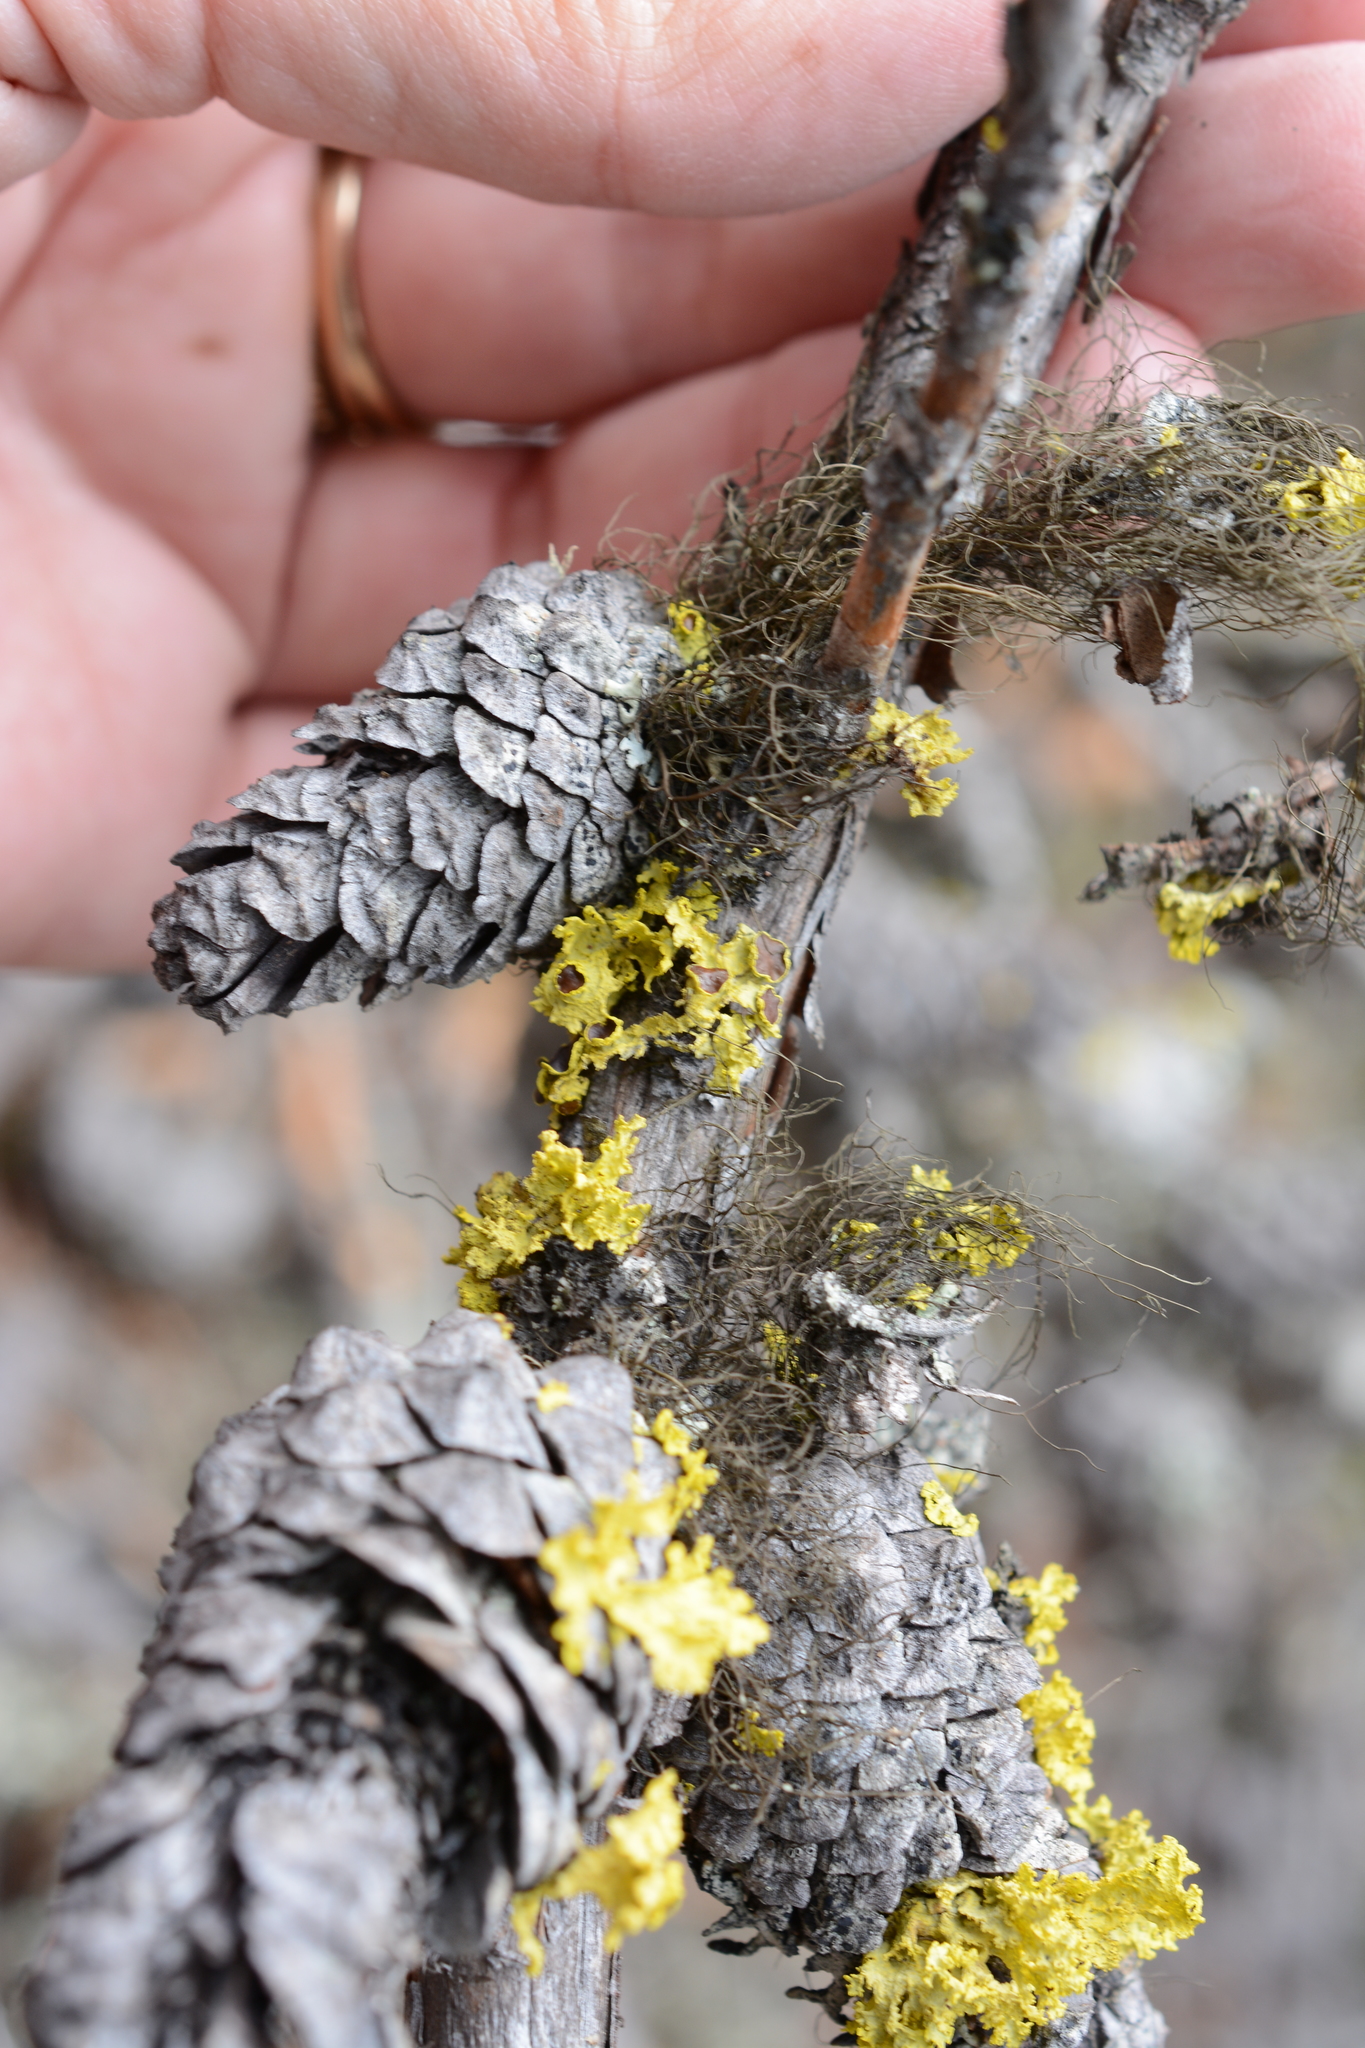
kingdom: Fungi
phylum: Ascomycota
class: Lecanoromycetes
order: Lecanorales
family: Parmeliaceae
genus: Vulpicida
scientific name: Vulpicida canadensis
